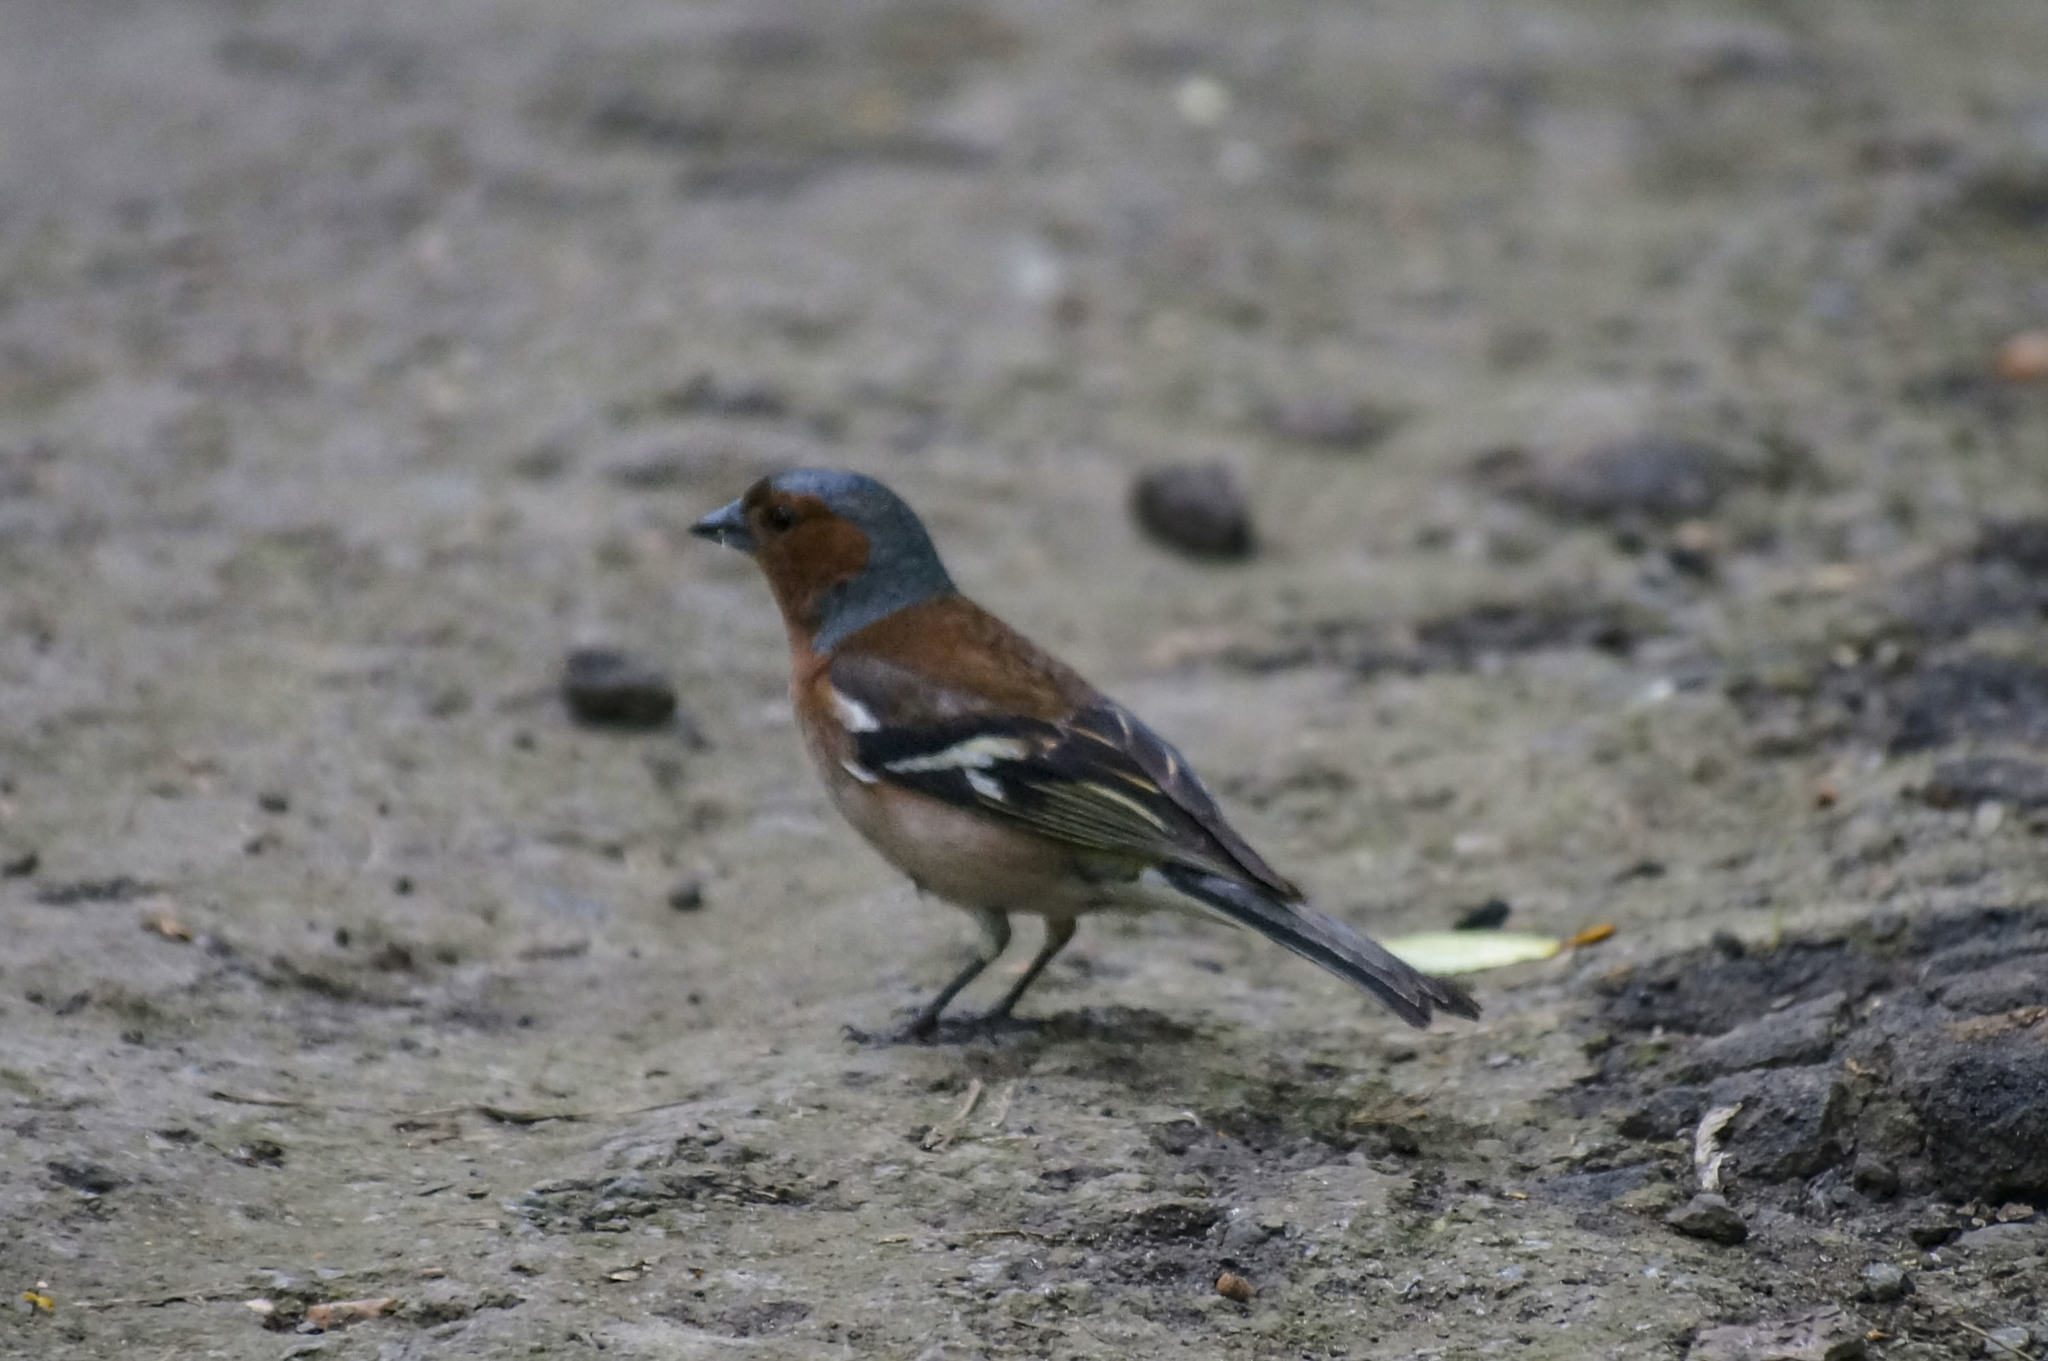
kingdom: Animalia
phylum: Chordata
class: Aves
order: Passeriformes
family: Fringillidae
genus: Fringilla
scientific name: Fringilla coelebs
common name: Common chaffinch
